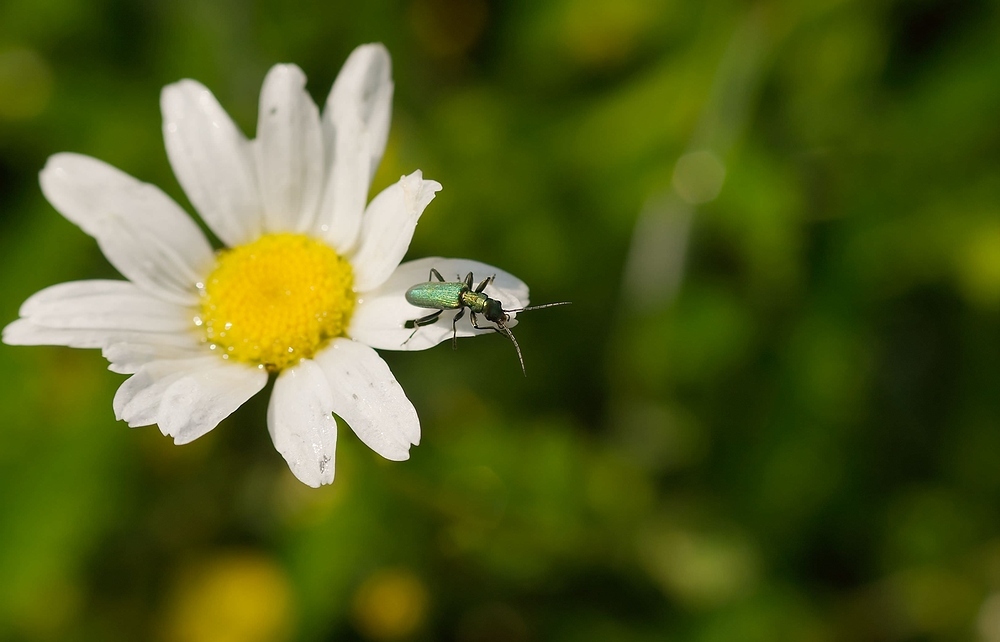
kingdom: Animalia
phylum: Arthropoda
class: Insecta
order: Coleoptera
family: Oedemeridae
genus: Chrysanthia
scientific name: Chrysanthia viridissima
